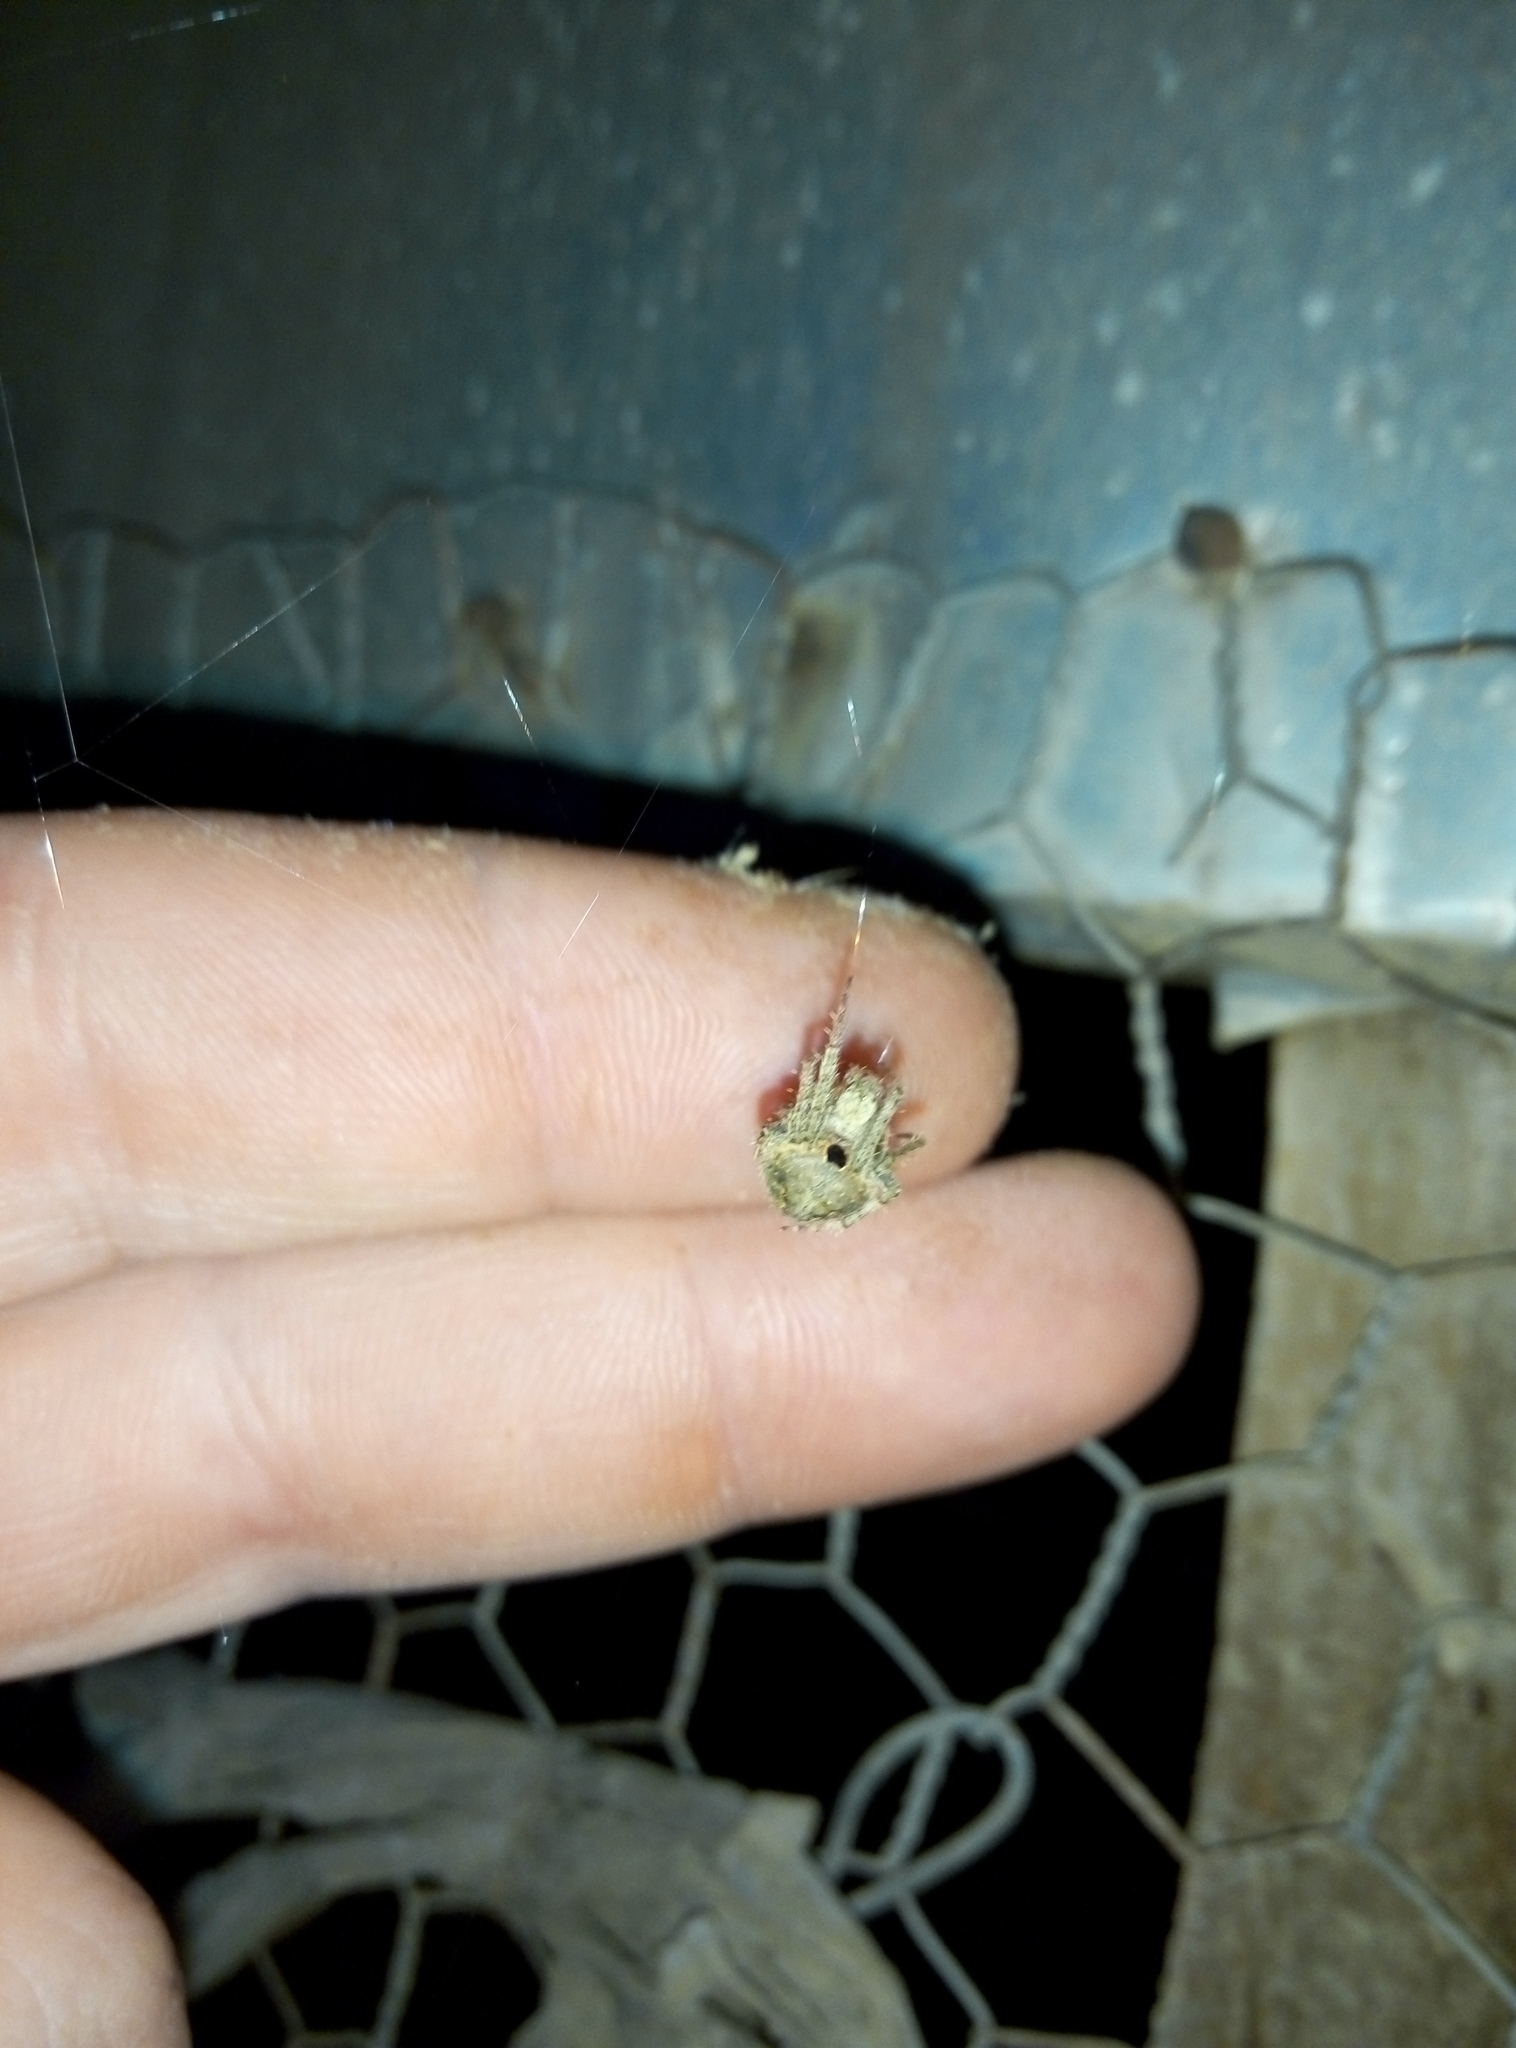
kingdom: Animalia
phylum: Arthropoda
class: Arachnida
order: Araneae
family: Araneidae
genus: Neoscona
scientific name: Neoscona subfusca
